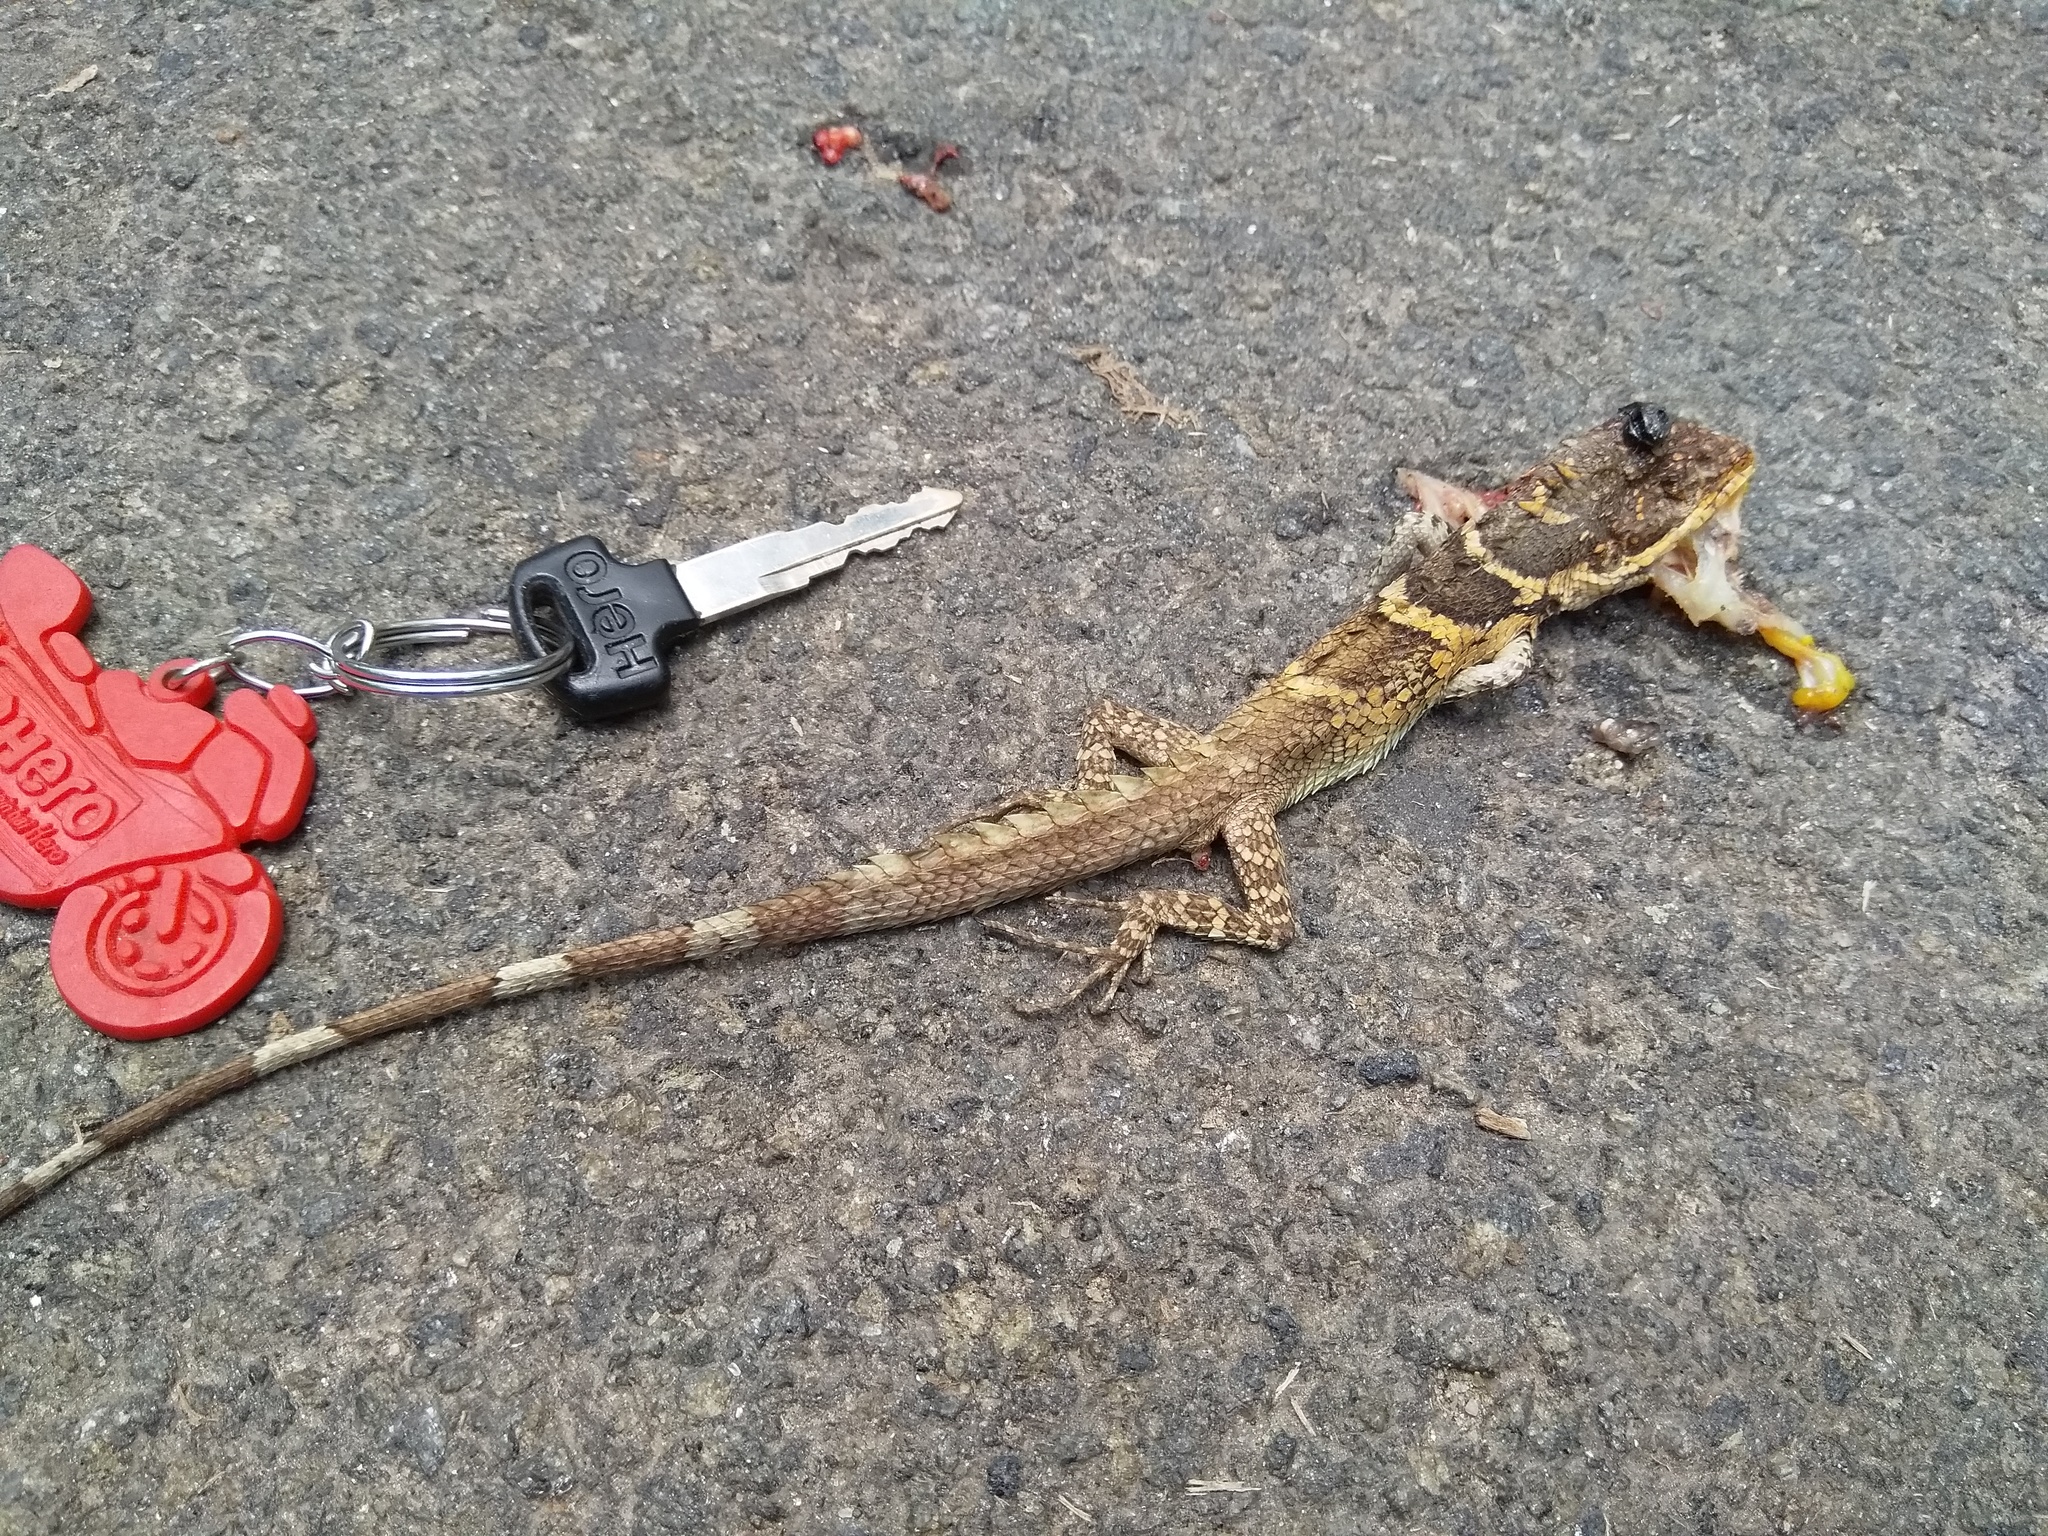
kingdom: Animalia
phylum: Chordata
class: Squamata
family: Agamidae
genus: Salea
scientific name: Salea anamallayana
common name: Anaimalai spiny lizard
